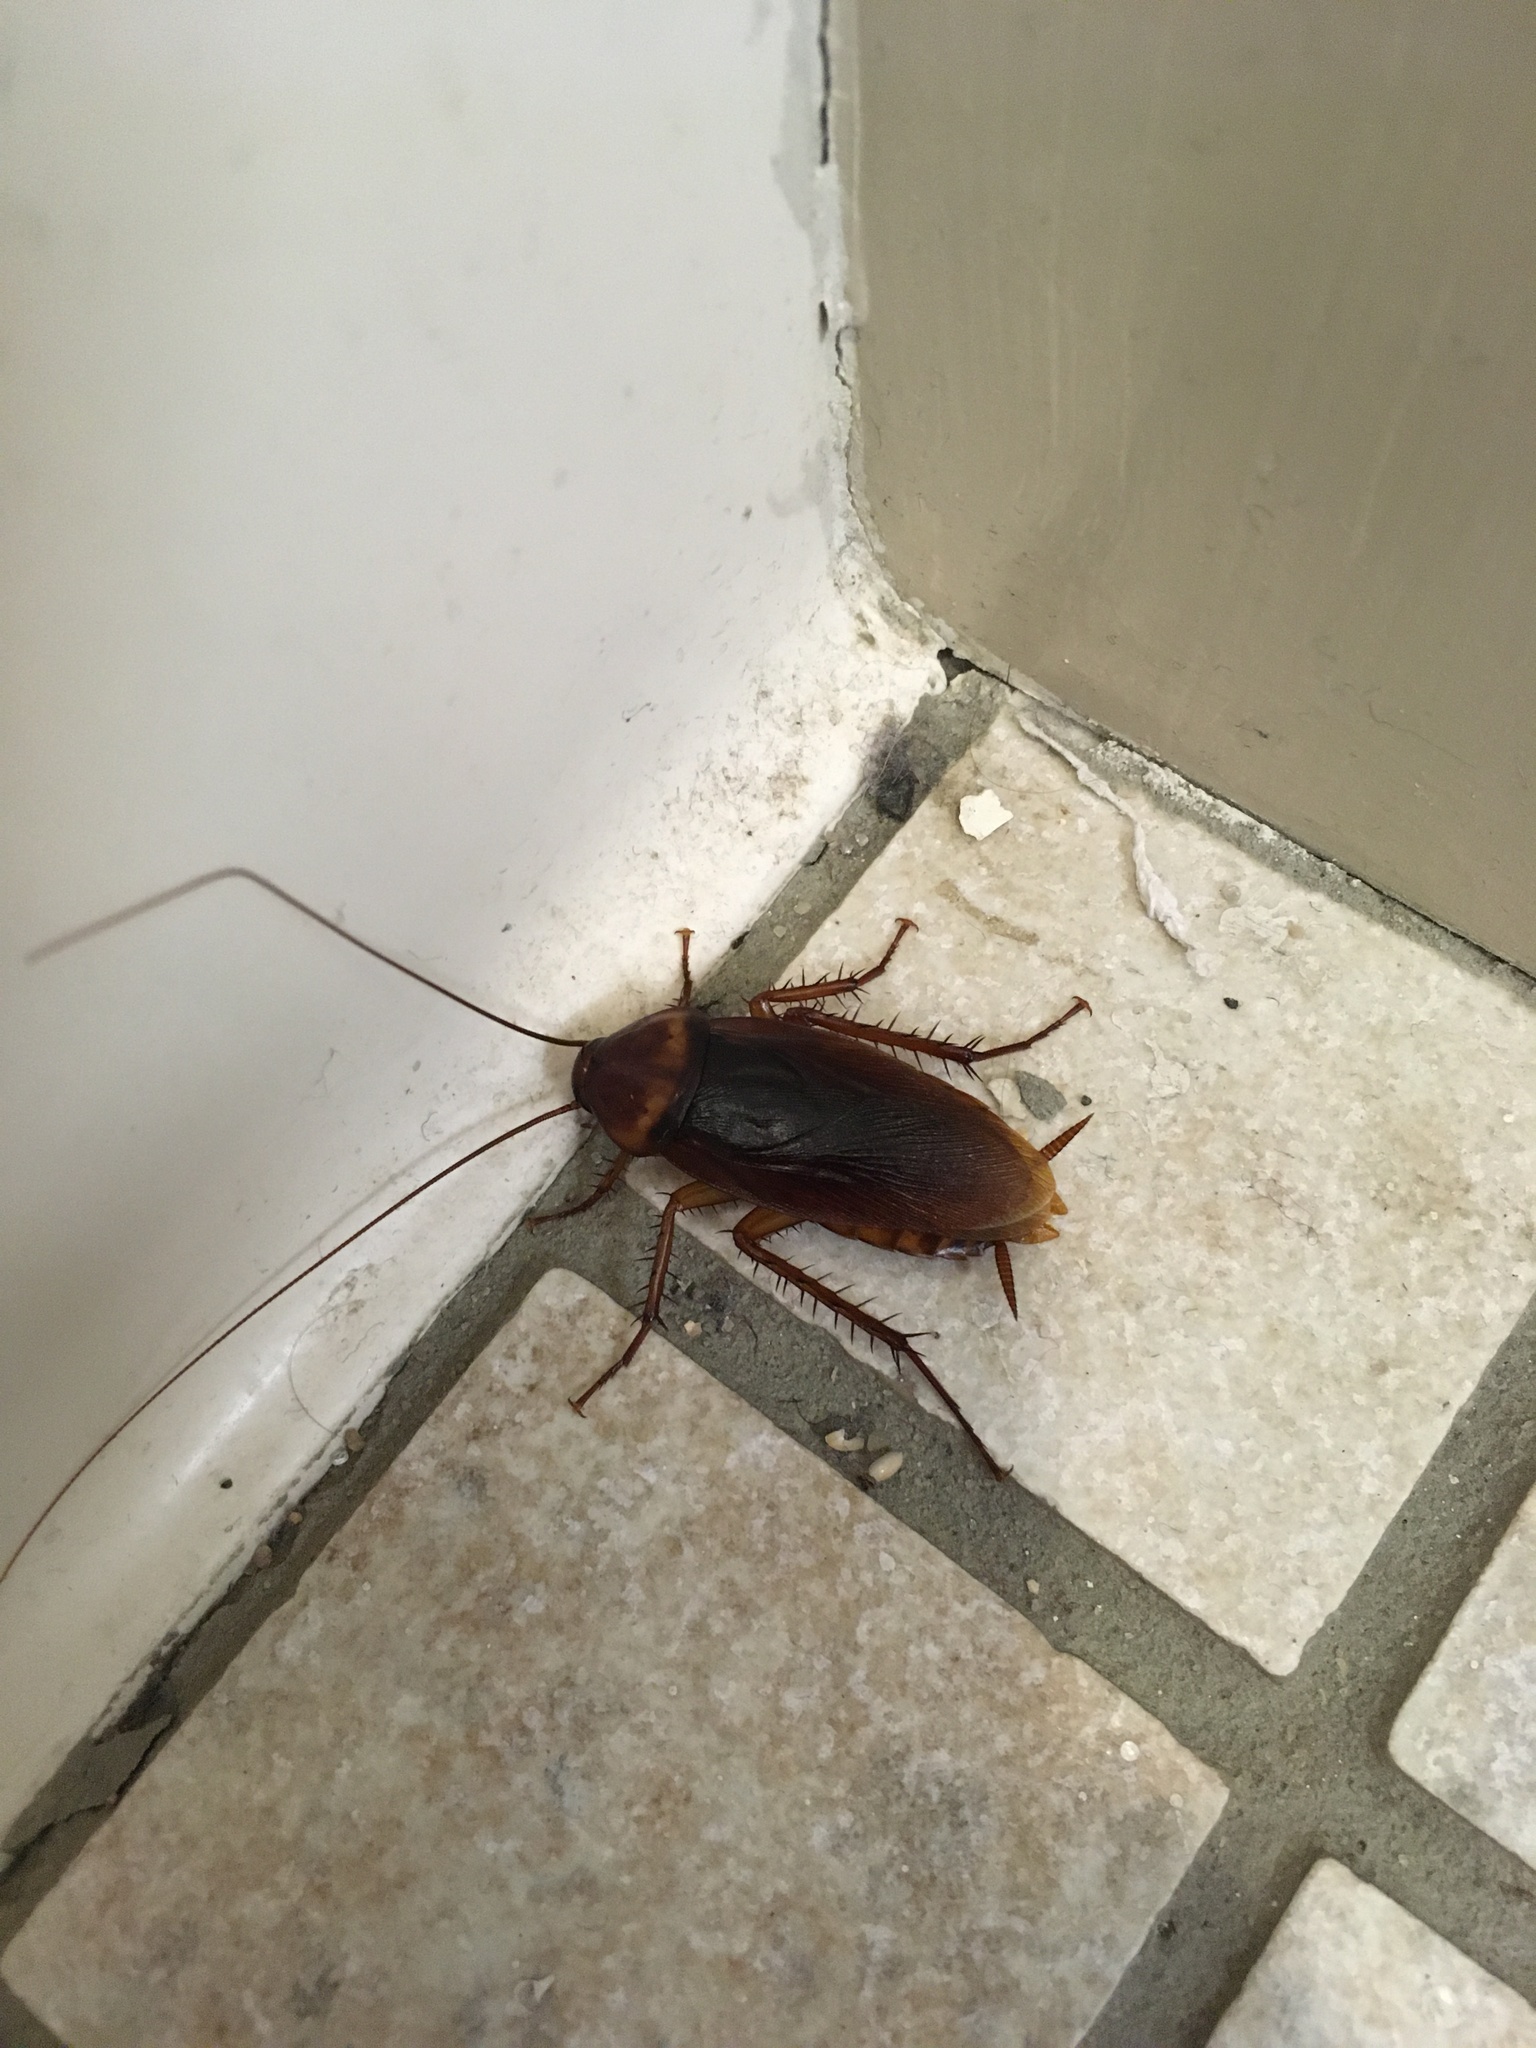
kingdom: Animalia
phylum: Arthropoda
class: Insecta
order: Blattodea
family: Blattidae
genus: Periplaneta
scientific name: Periplaneta americana
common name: American cockroach
